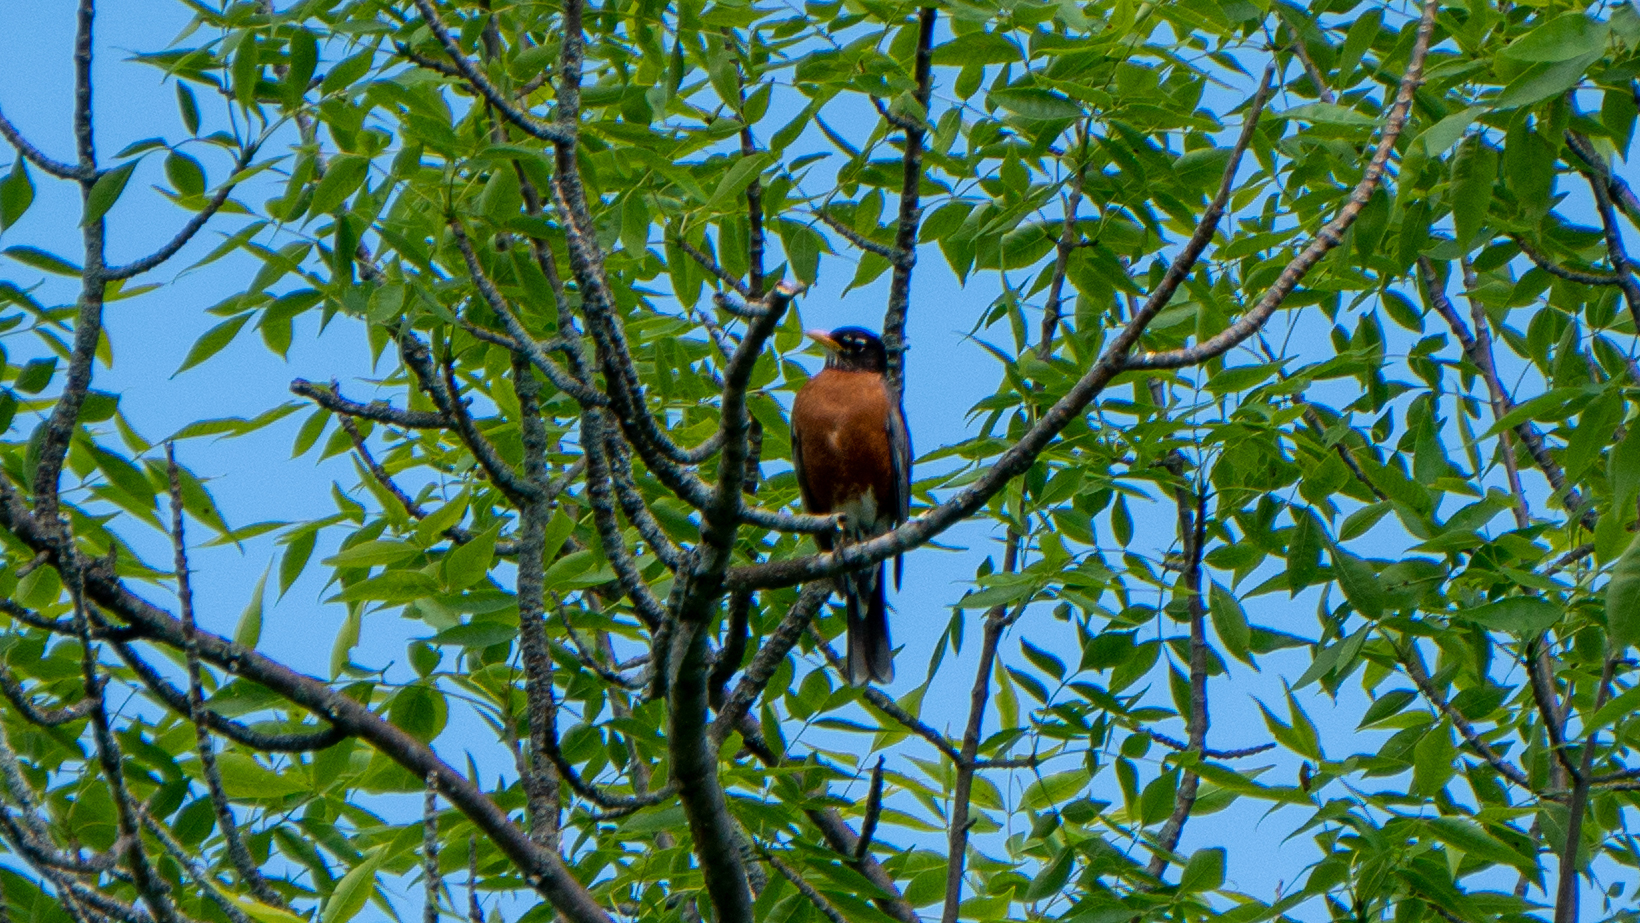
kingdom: Animalia
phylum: Chordata
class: Aves
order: Passeriformes
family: Turdidae
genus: Turdus
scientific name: Turdus migratorius
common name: American robin
